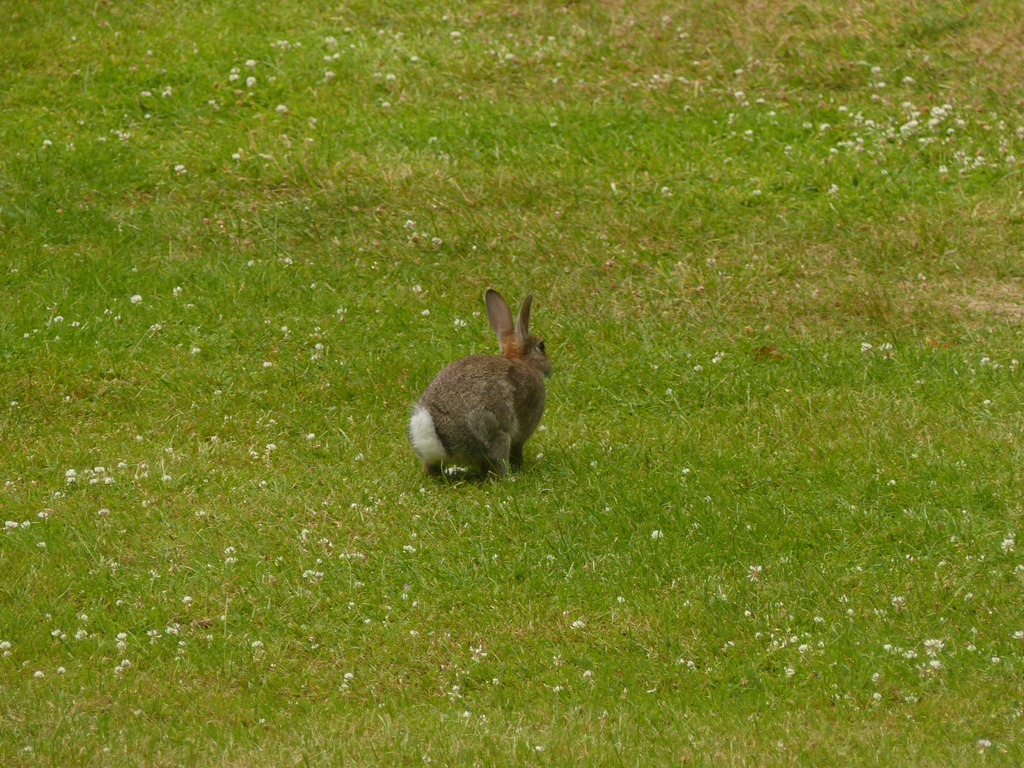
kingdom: Animalia
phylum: Chordata
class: Mammalia
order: Lagomorpha
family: Leporidae
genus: Oryctolagus
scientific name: Oryctolagus cuniculus
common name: European rabbit
